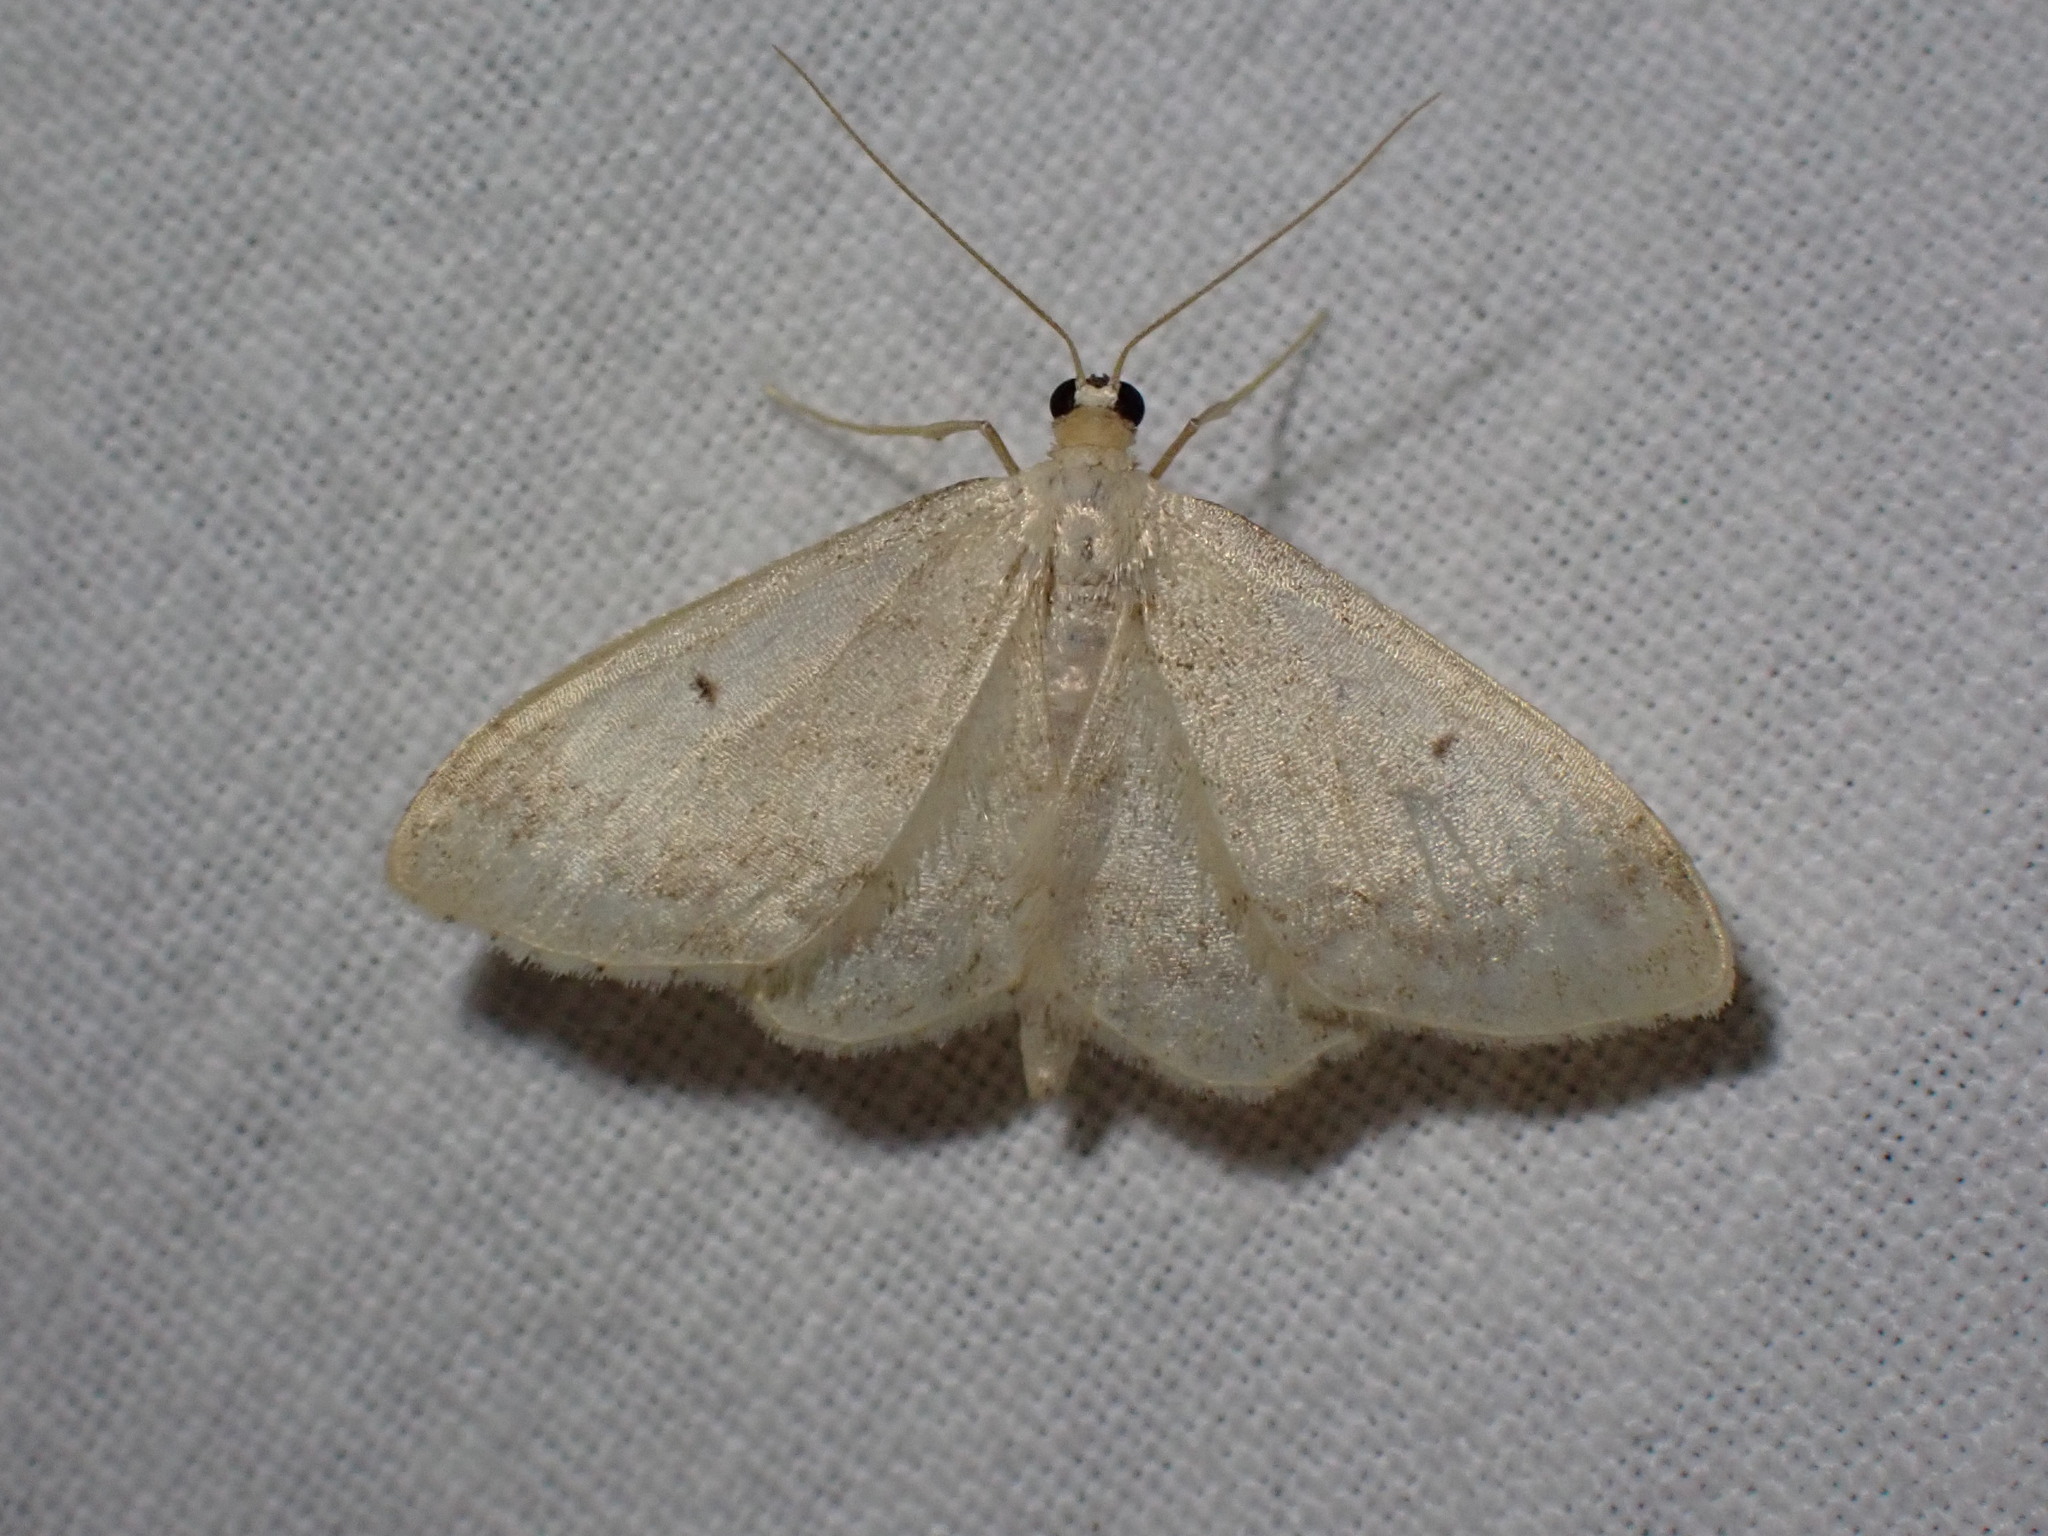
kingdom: Animalia
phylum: Arthropoda
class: Insecta
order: Lepidoptera
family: Geometridae
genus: Idaea
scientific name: Idaea biselata
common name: Small fan-footed wave
